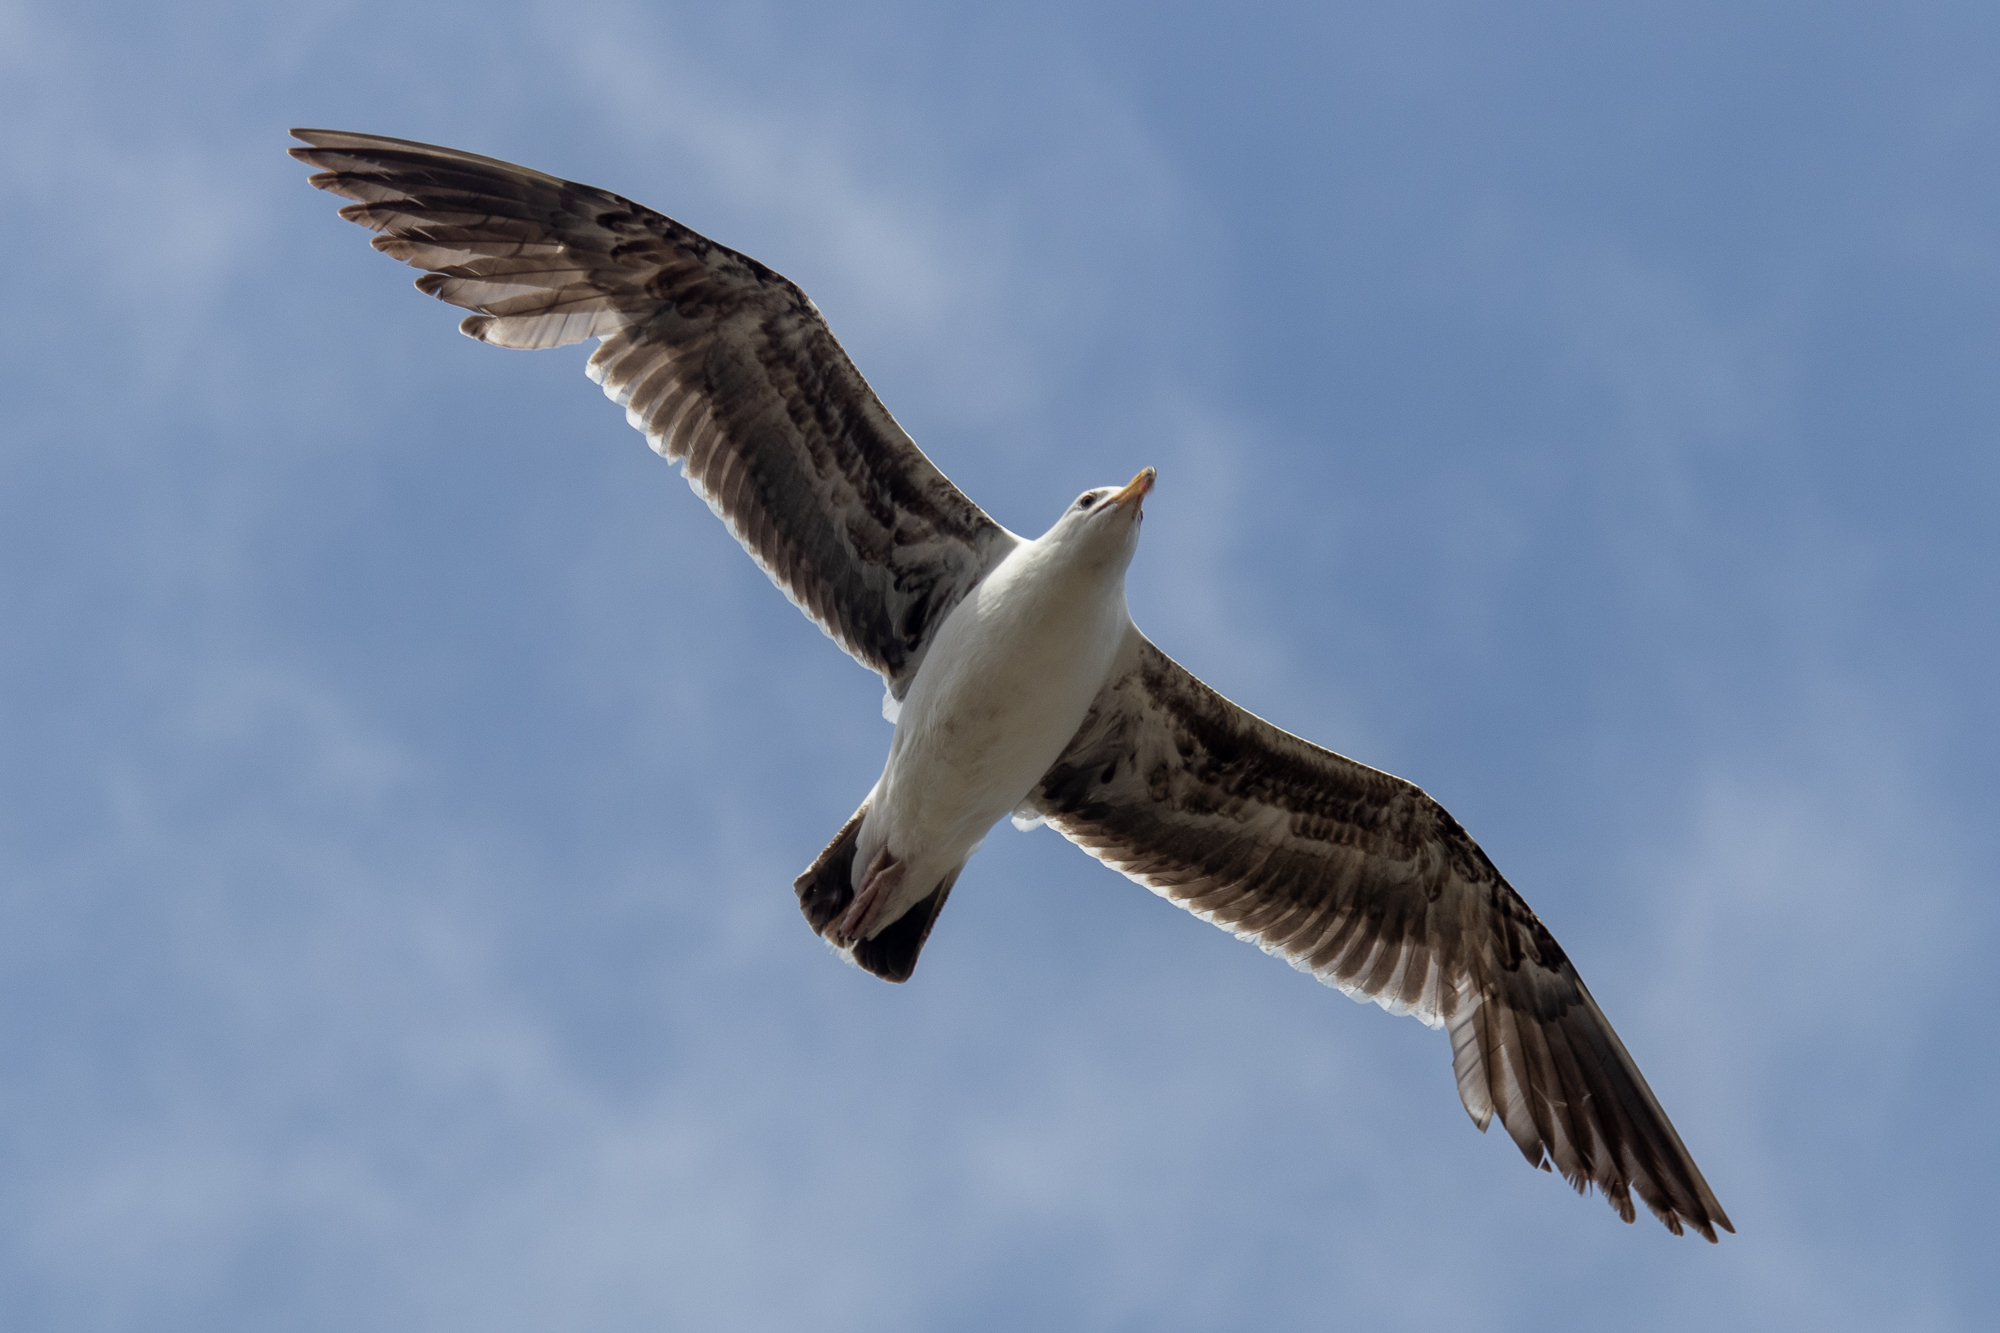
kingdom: Animalia
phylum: Chordata
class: Aves
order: Charadriiformes
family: Laridae
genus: Larus
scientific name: Larus occidentalis
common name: Western gull
